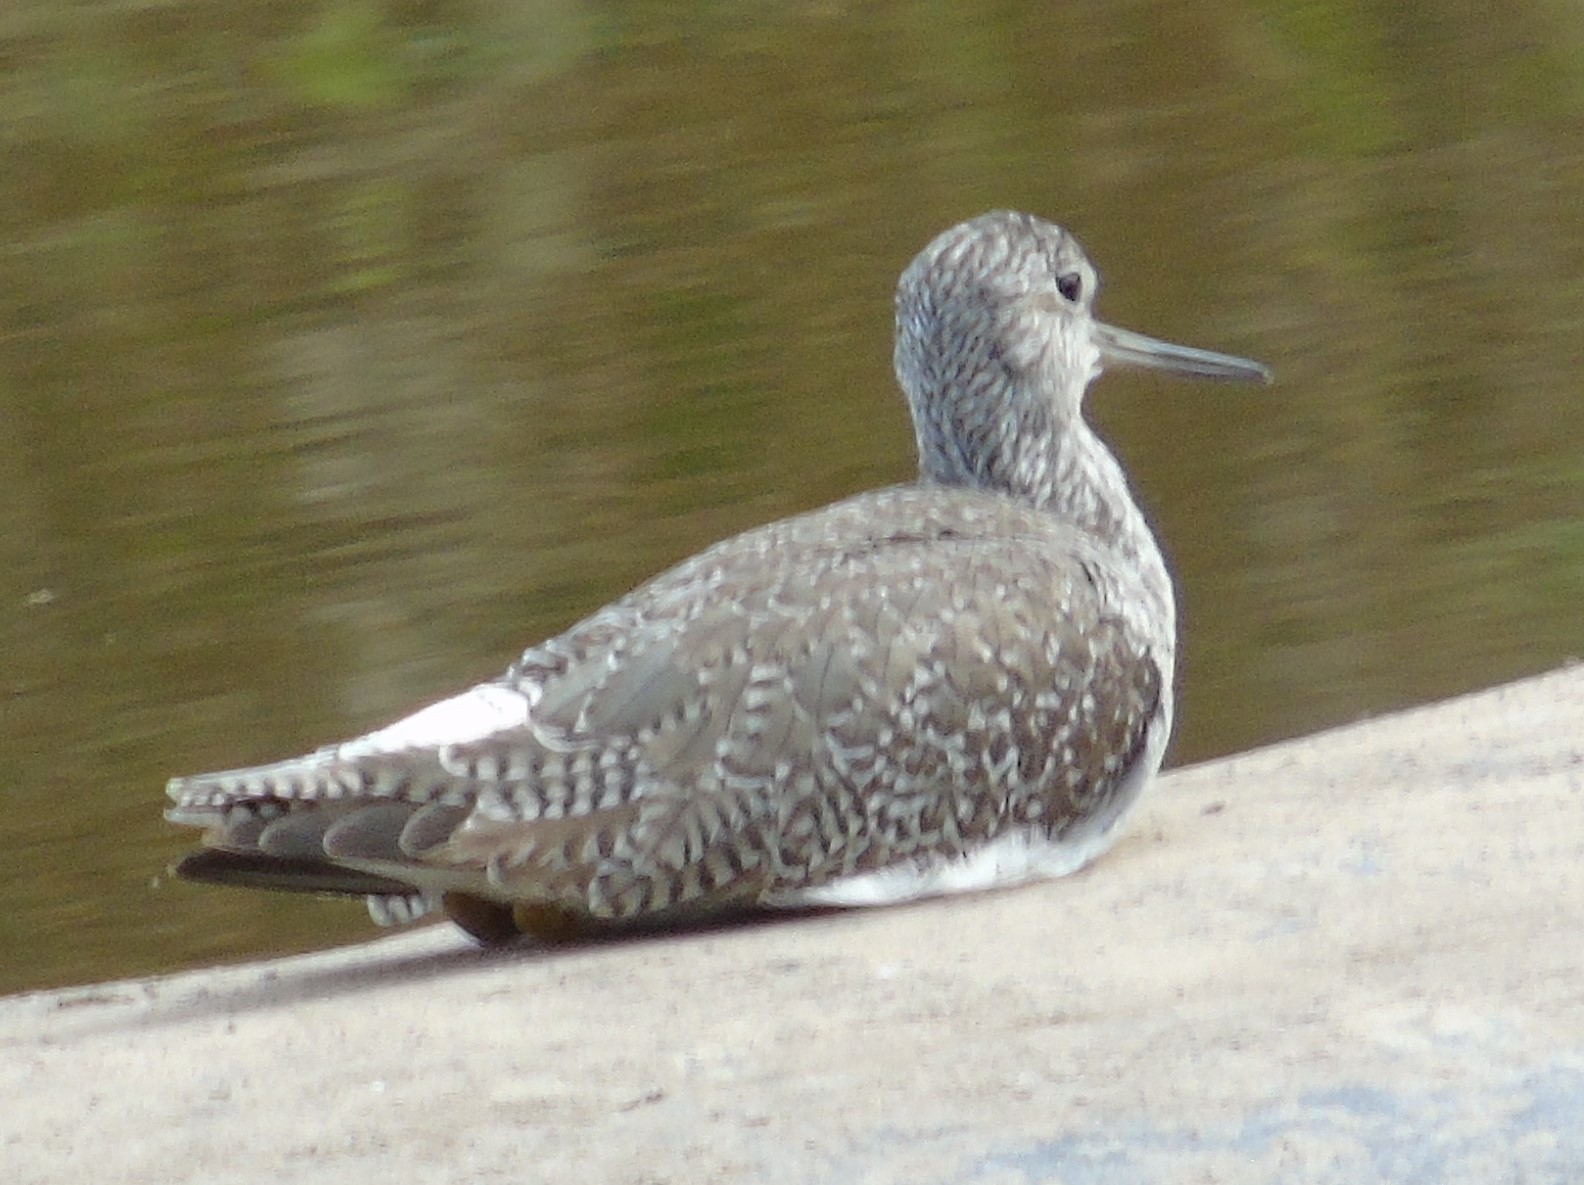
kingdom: Animalia
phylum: Chordata
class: Aves
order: Charadriiformes
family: Scolopacidae
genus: Tringa
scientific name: Tringa melanoleuca
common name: Greater yellowlegs
